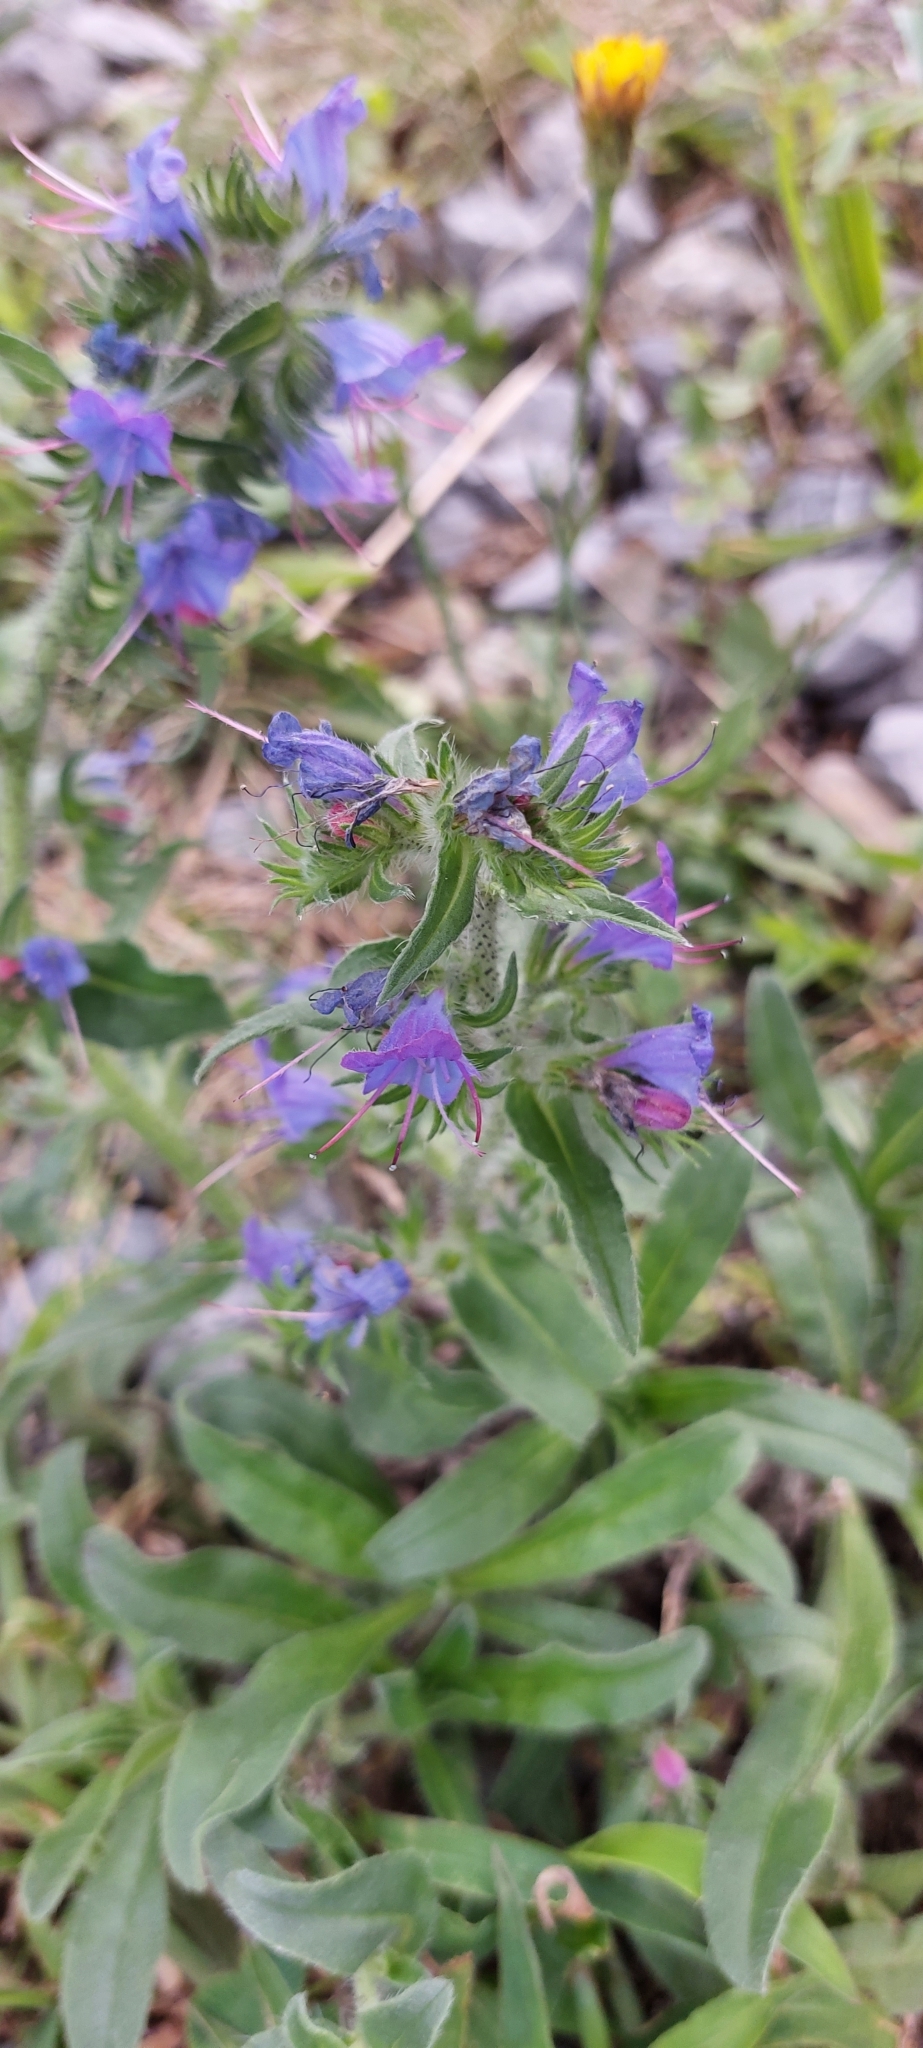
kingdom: Plantae
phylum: Tracheophyta
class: Magnoliopsida
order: Boraginales
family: Boraginaceae
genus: Echium
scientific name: Echium vulgare
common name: Common viper's bugloss
